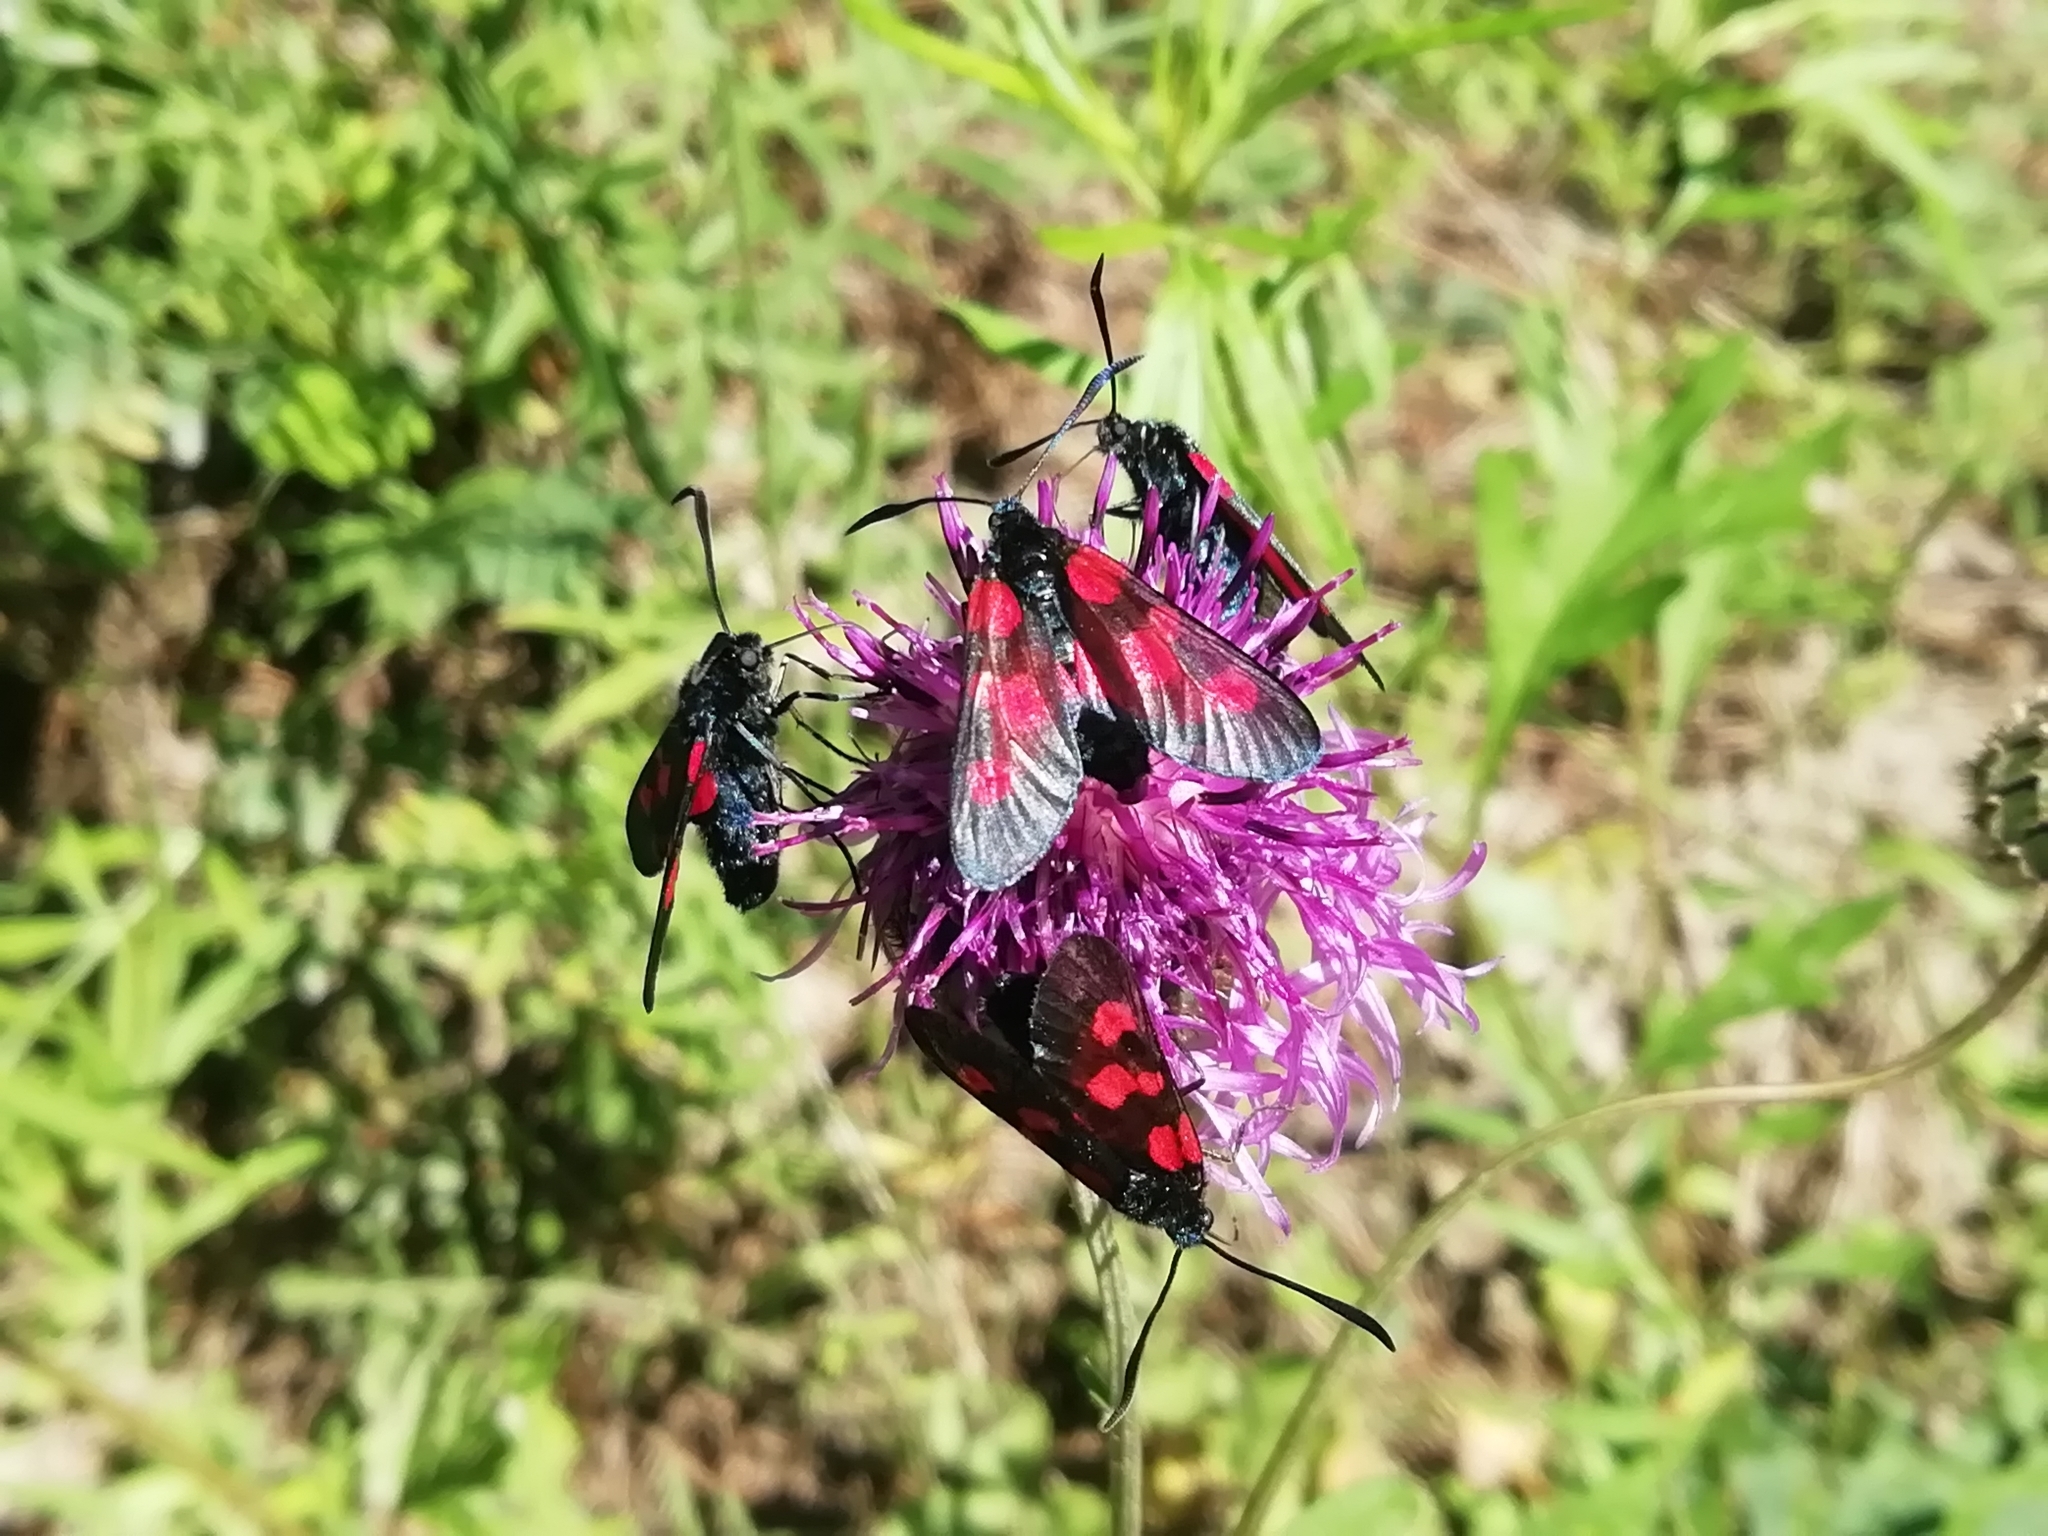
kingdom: Animalia
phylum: Arthropoda
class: Insecta
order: Lepidoptera
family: Zygaenidae
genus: Zygaena
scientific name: Zygaena lonicerae
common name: Narrow-bordered five-spot burnet
